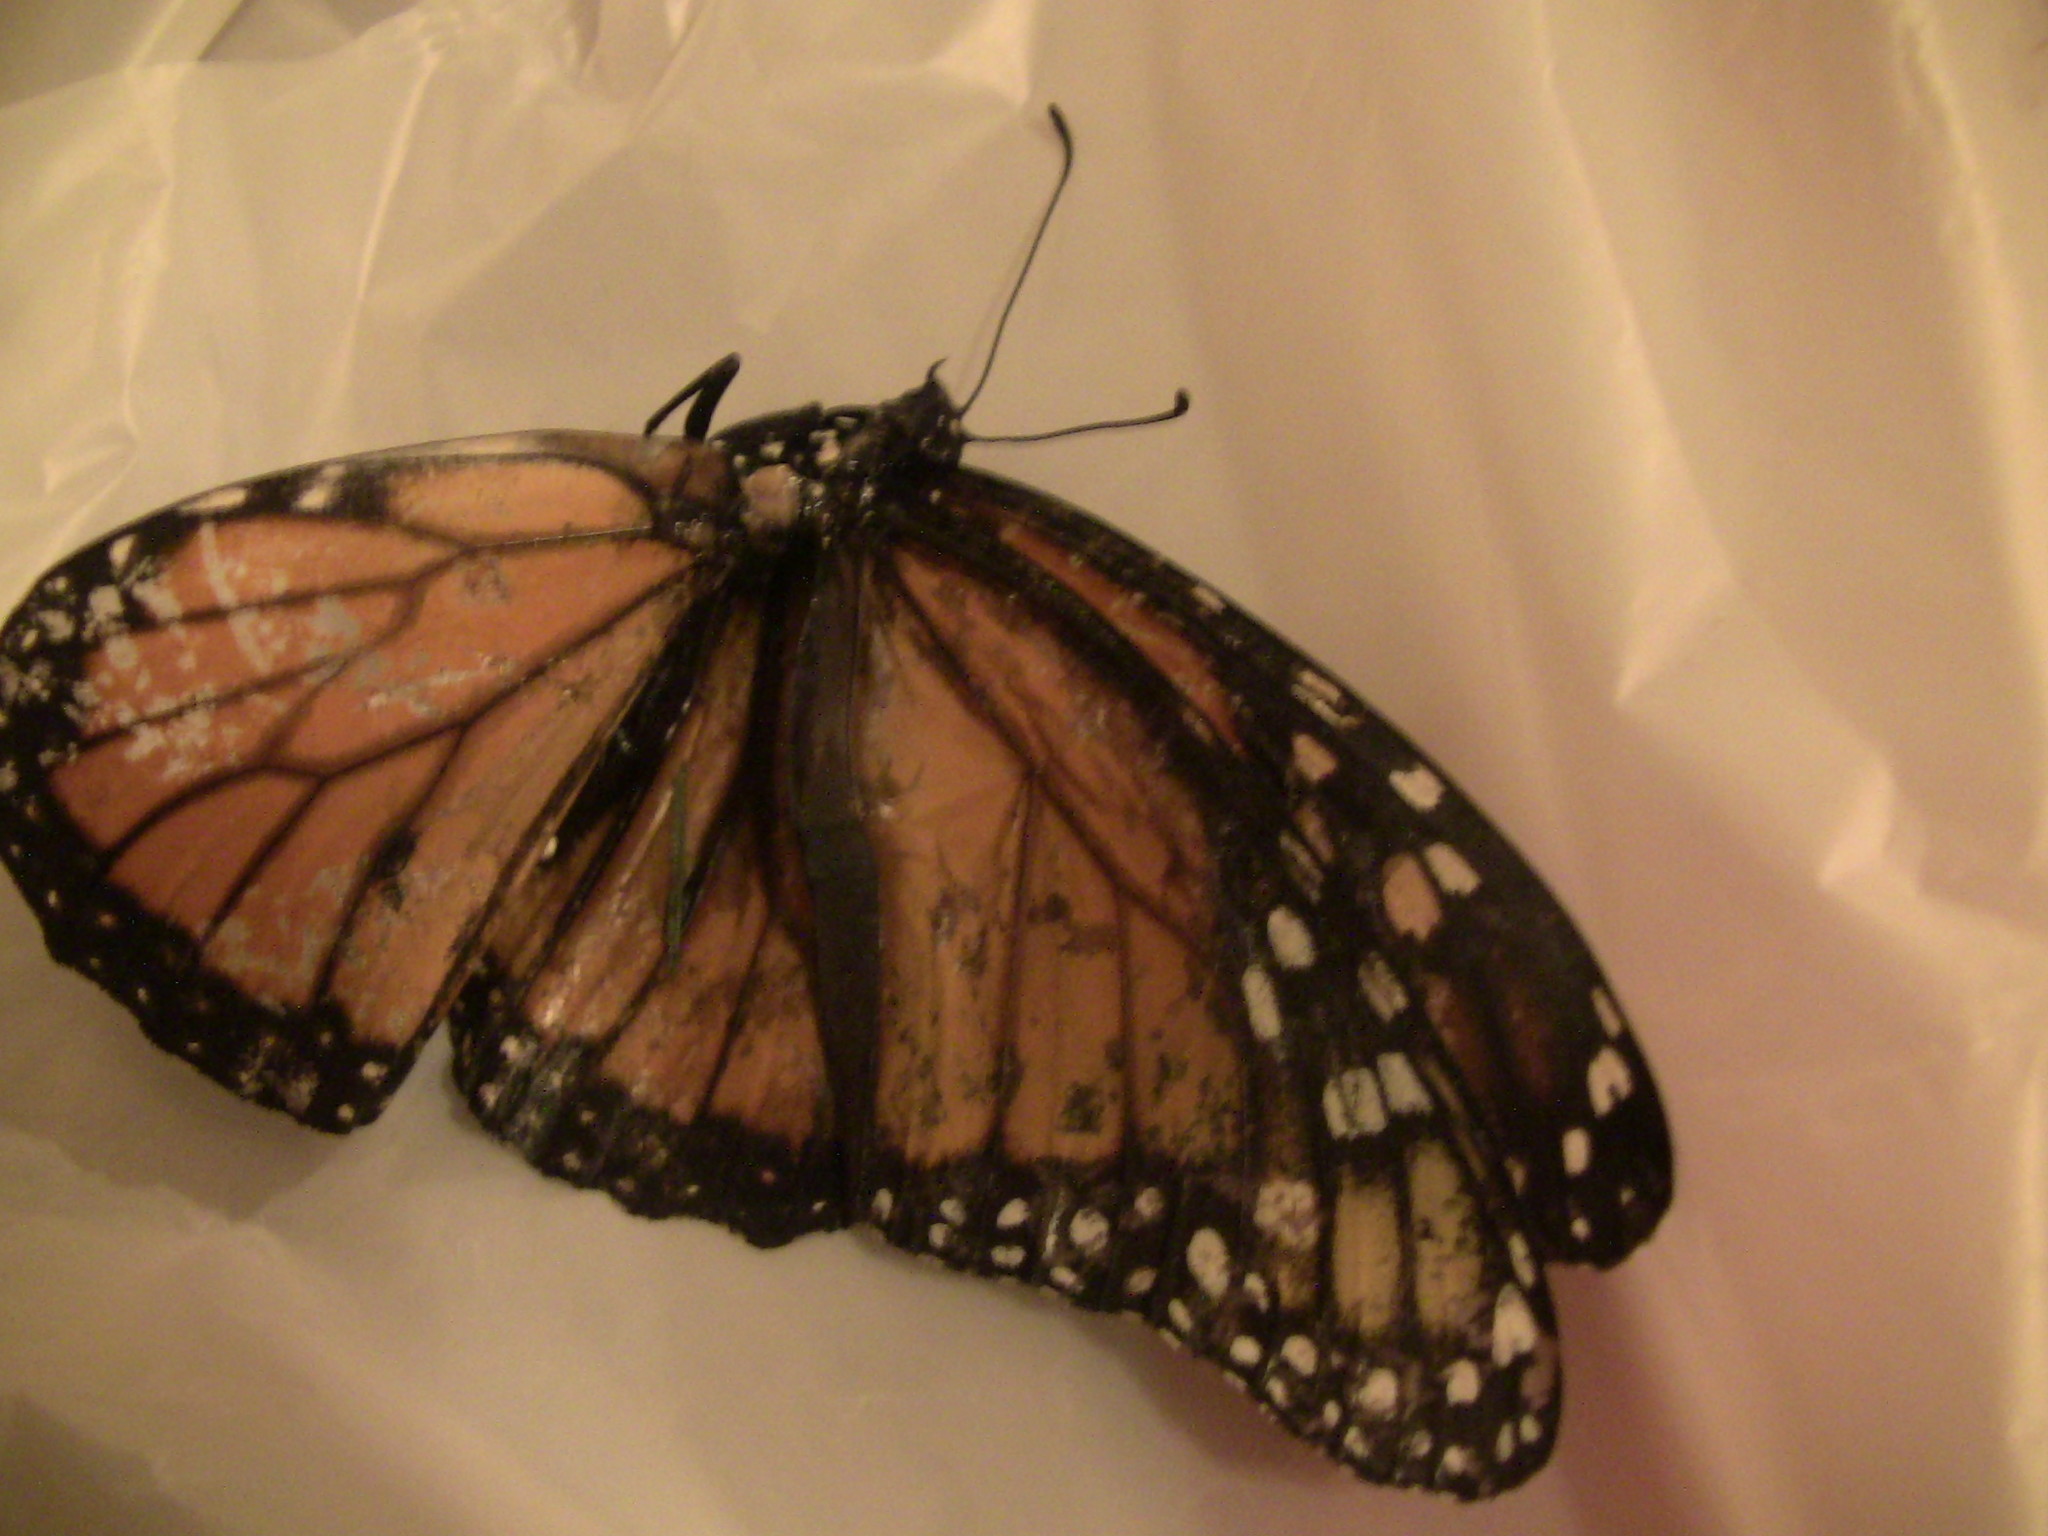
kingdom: Animalia
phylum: Arthropoda
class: Insecta
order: Lepidoptera
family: Nymphalidae
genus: Danaus
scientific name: Danaus plexippus
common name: Monarch
